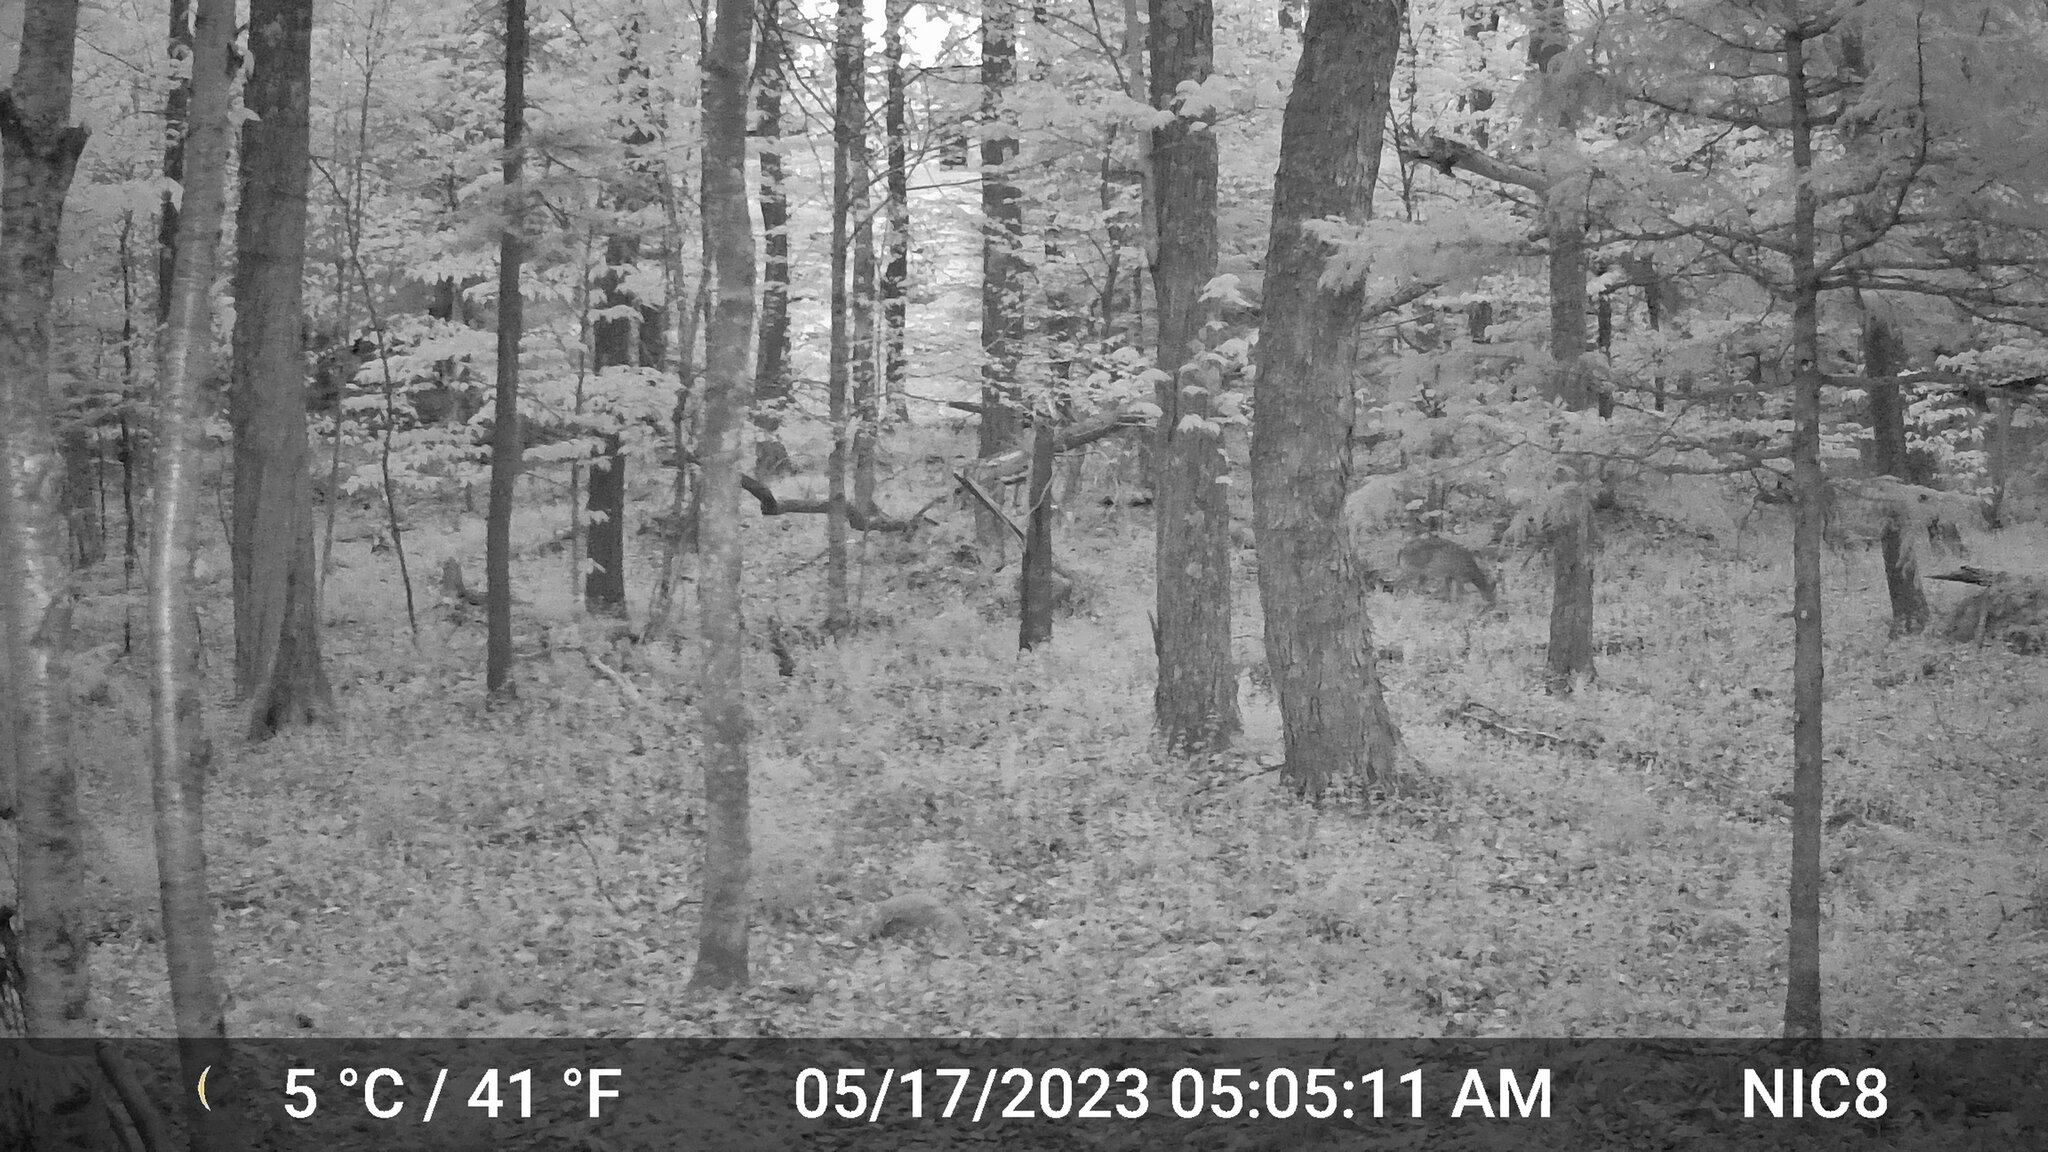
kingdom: Animalia
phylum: Chordata
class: Mammalia
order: Artiodactyla
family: Cervidae
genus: Odocoileus
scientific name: Odocoileus virginianus
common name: White-tailed deer
